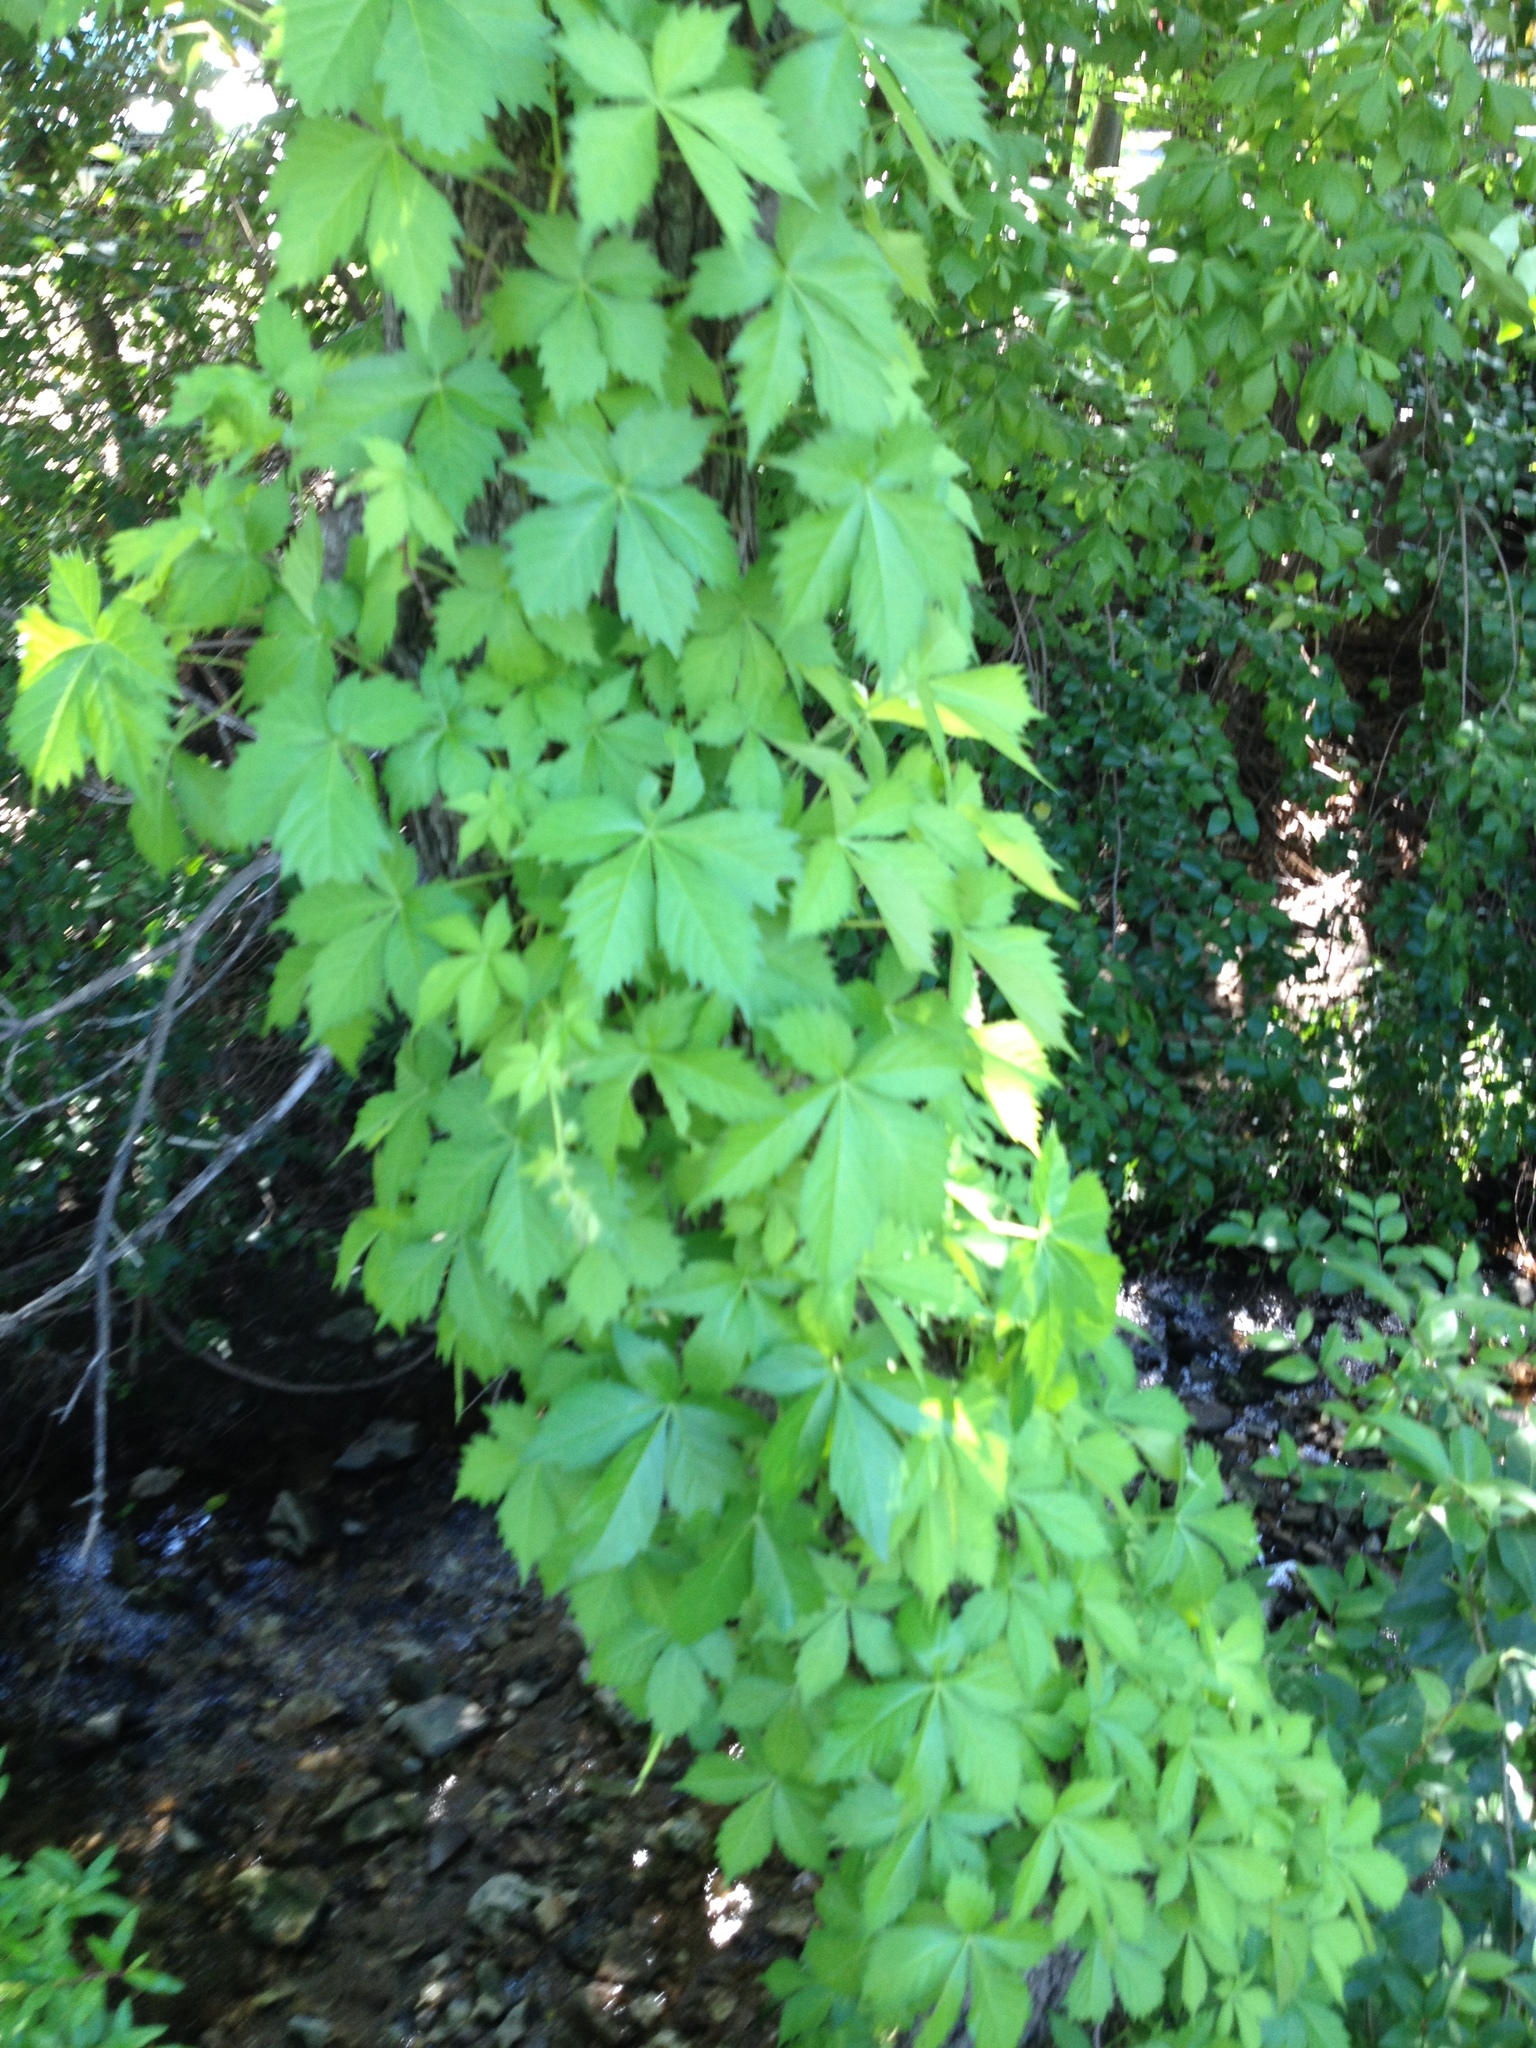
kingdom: Plantae
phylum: Tracheophyta
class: Magnoliopsida
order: Vitales
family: Vitaceae
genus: Parthenocissus
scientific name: Parthenocissus quinquefolia
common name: Virginia-creeper
